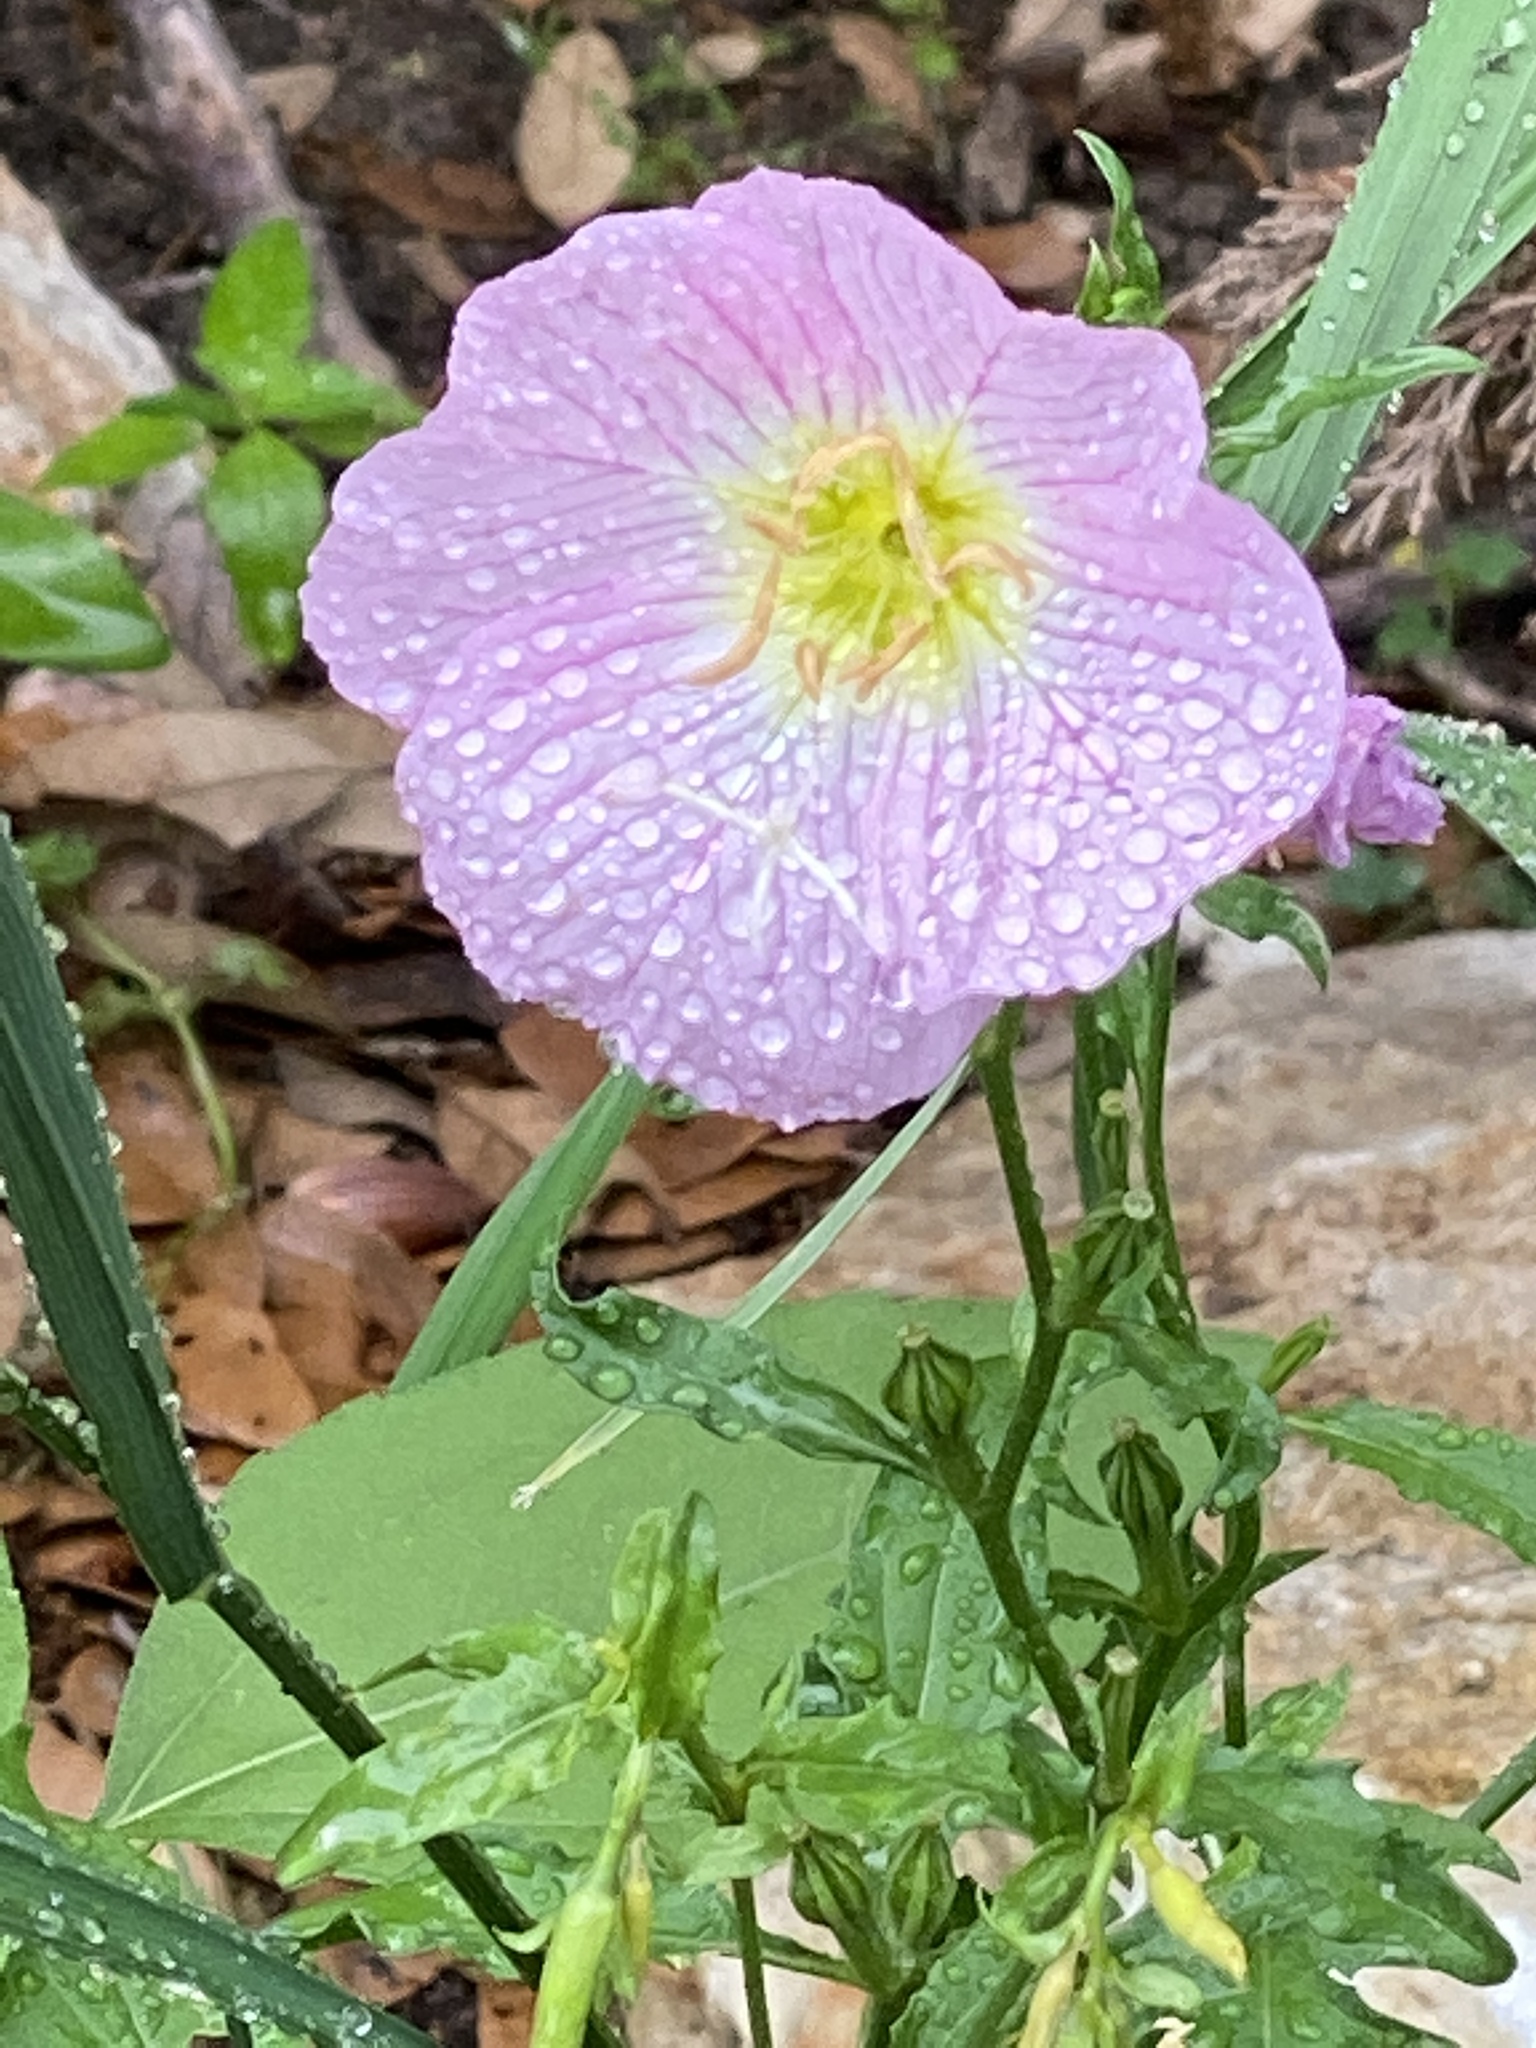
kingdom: Plantae
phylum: Tracheophyta
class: Magnoliopsida
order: Myrtales
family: Onagraceae
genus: Oenothera
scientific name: Oenothera speciosa
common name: White evening-primrose
